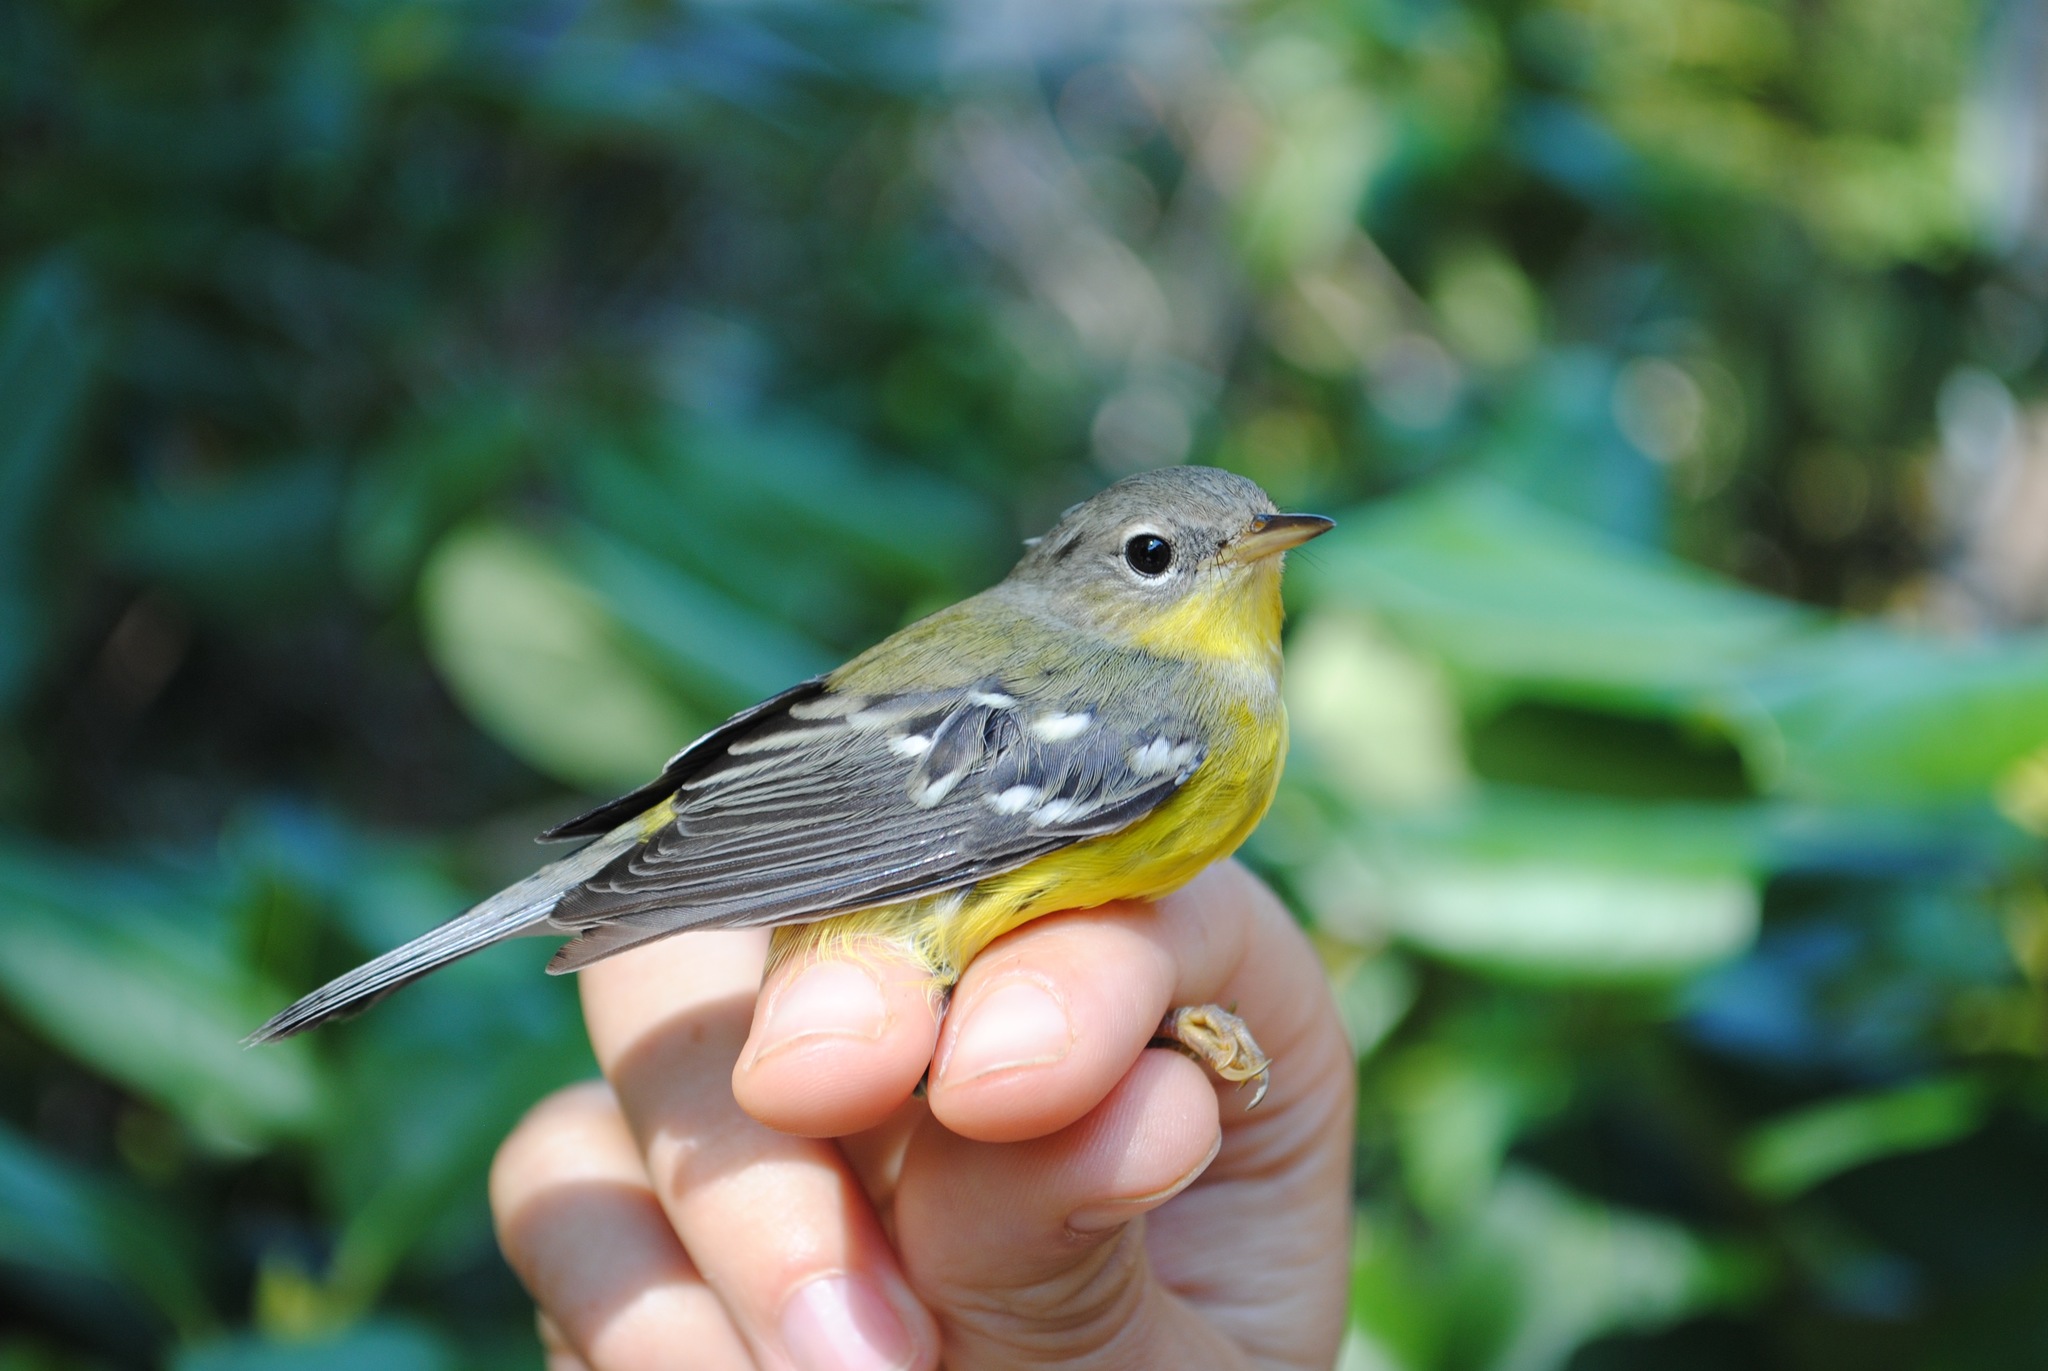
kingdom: Animalia
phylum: Chordata
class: Aves
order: Passeriformes
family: Parulidae
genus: Setophaga
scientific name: Setophaga magnolia
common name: Magnolia warbler
